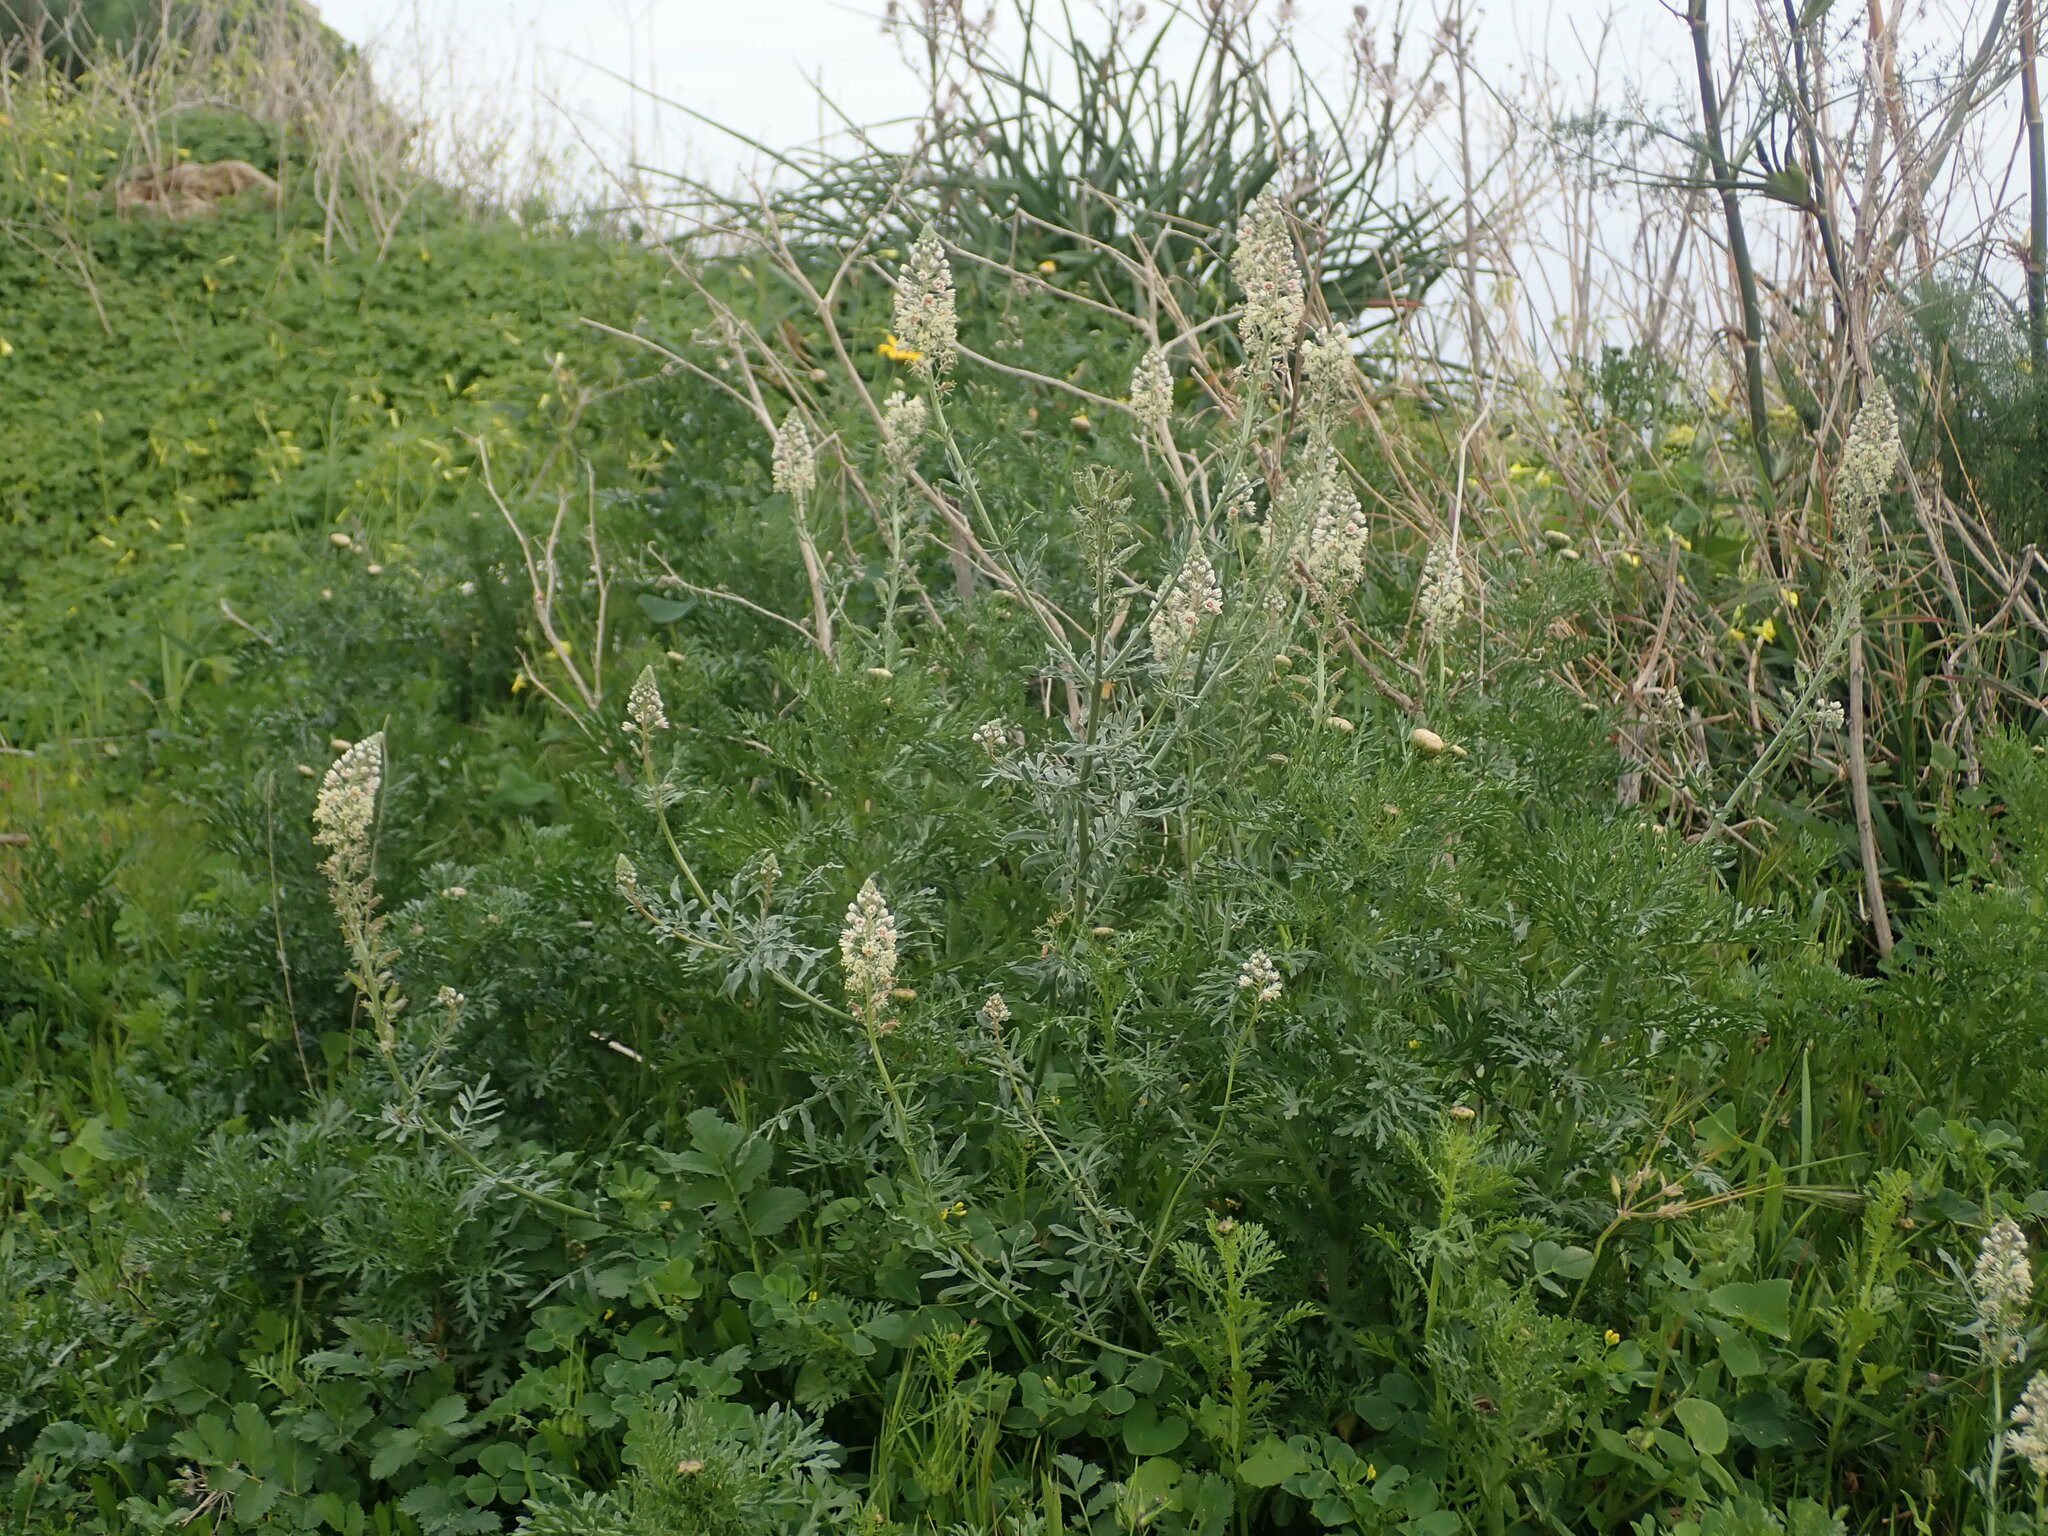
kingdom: Plantae
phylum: Tracheophyta
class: Magnoliopsida
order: Brassicales
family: Resedaceae
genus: Reseda
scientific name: Reseda alba
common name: White mignonette
